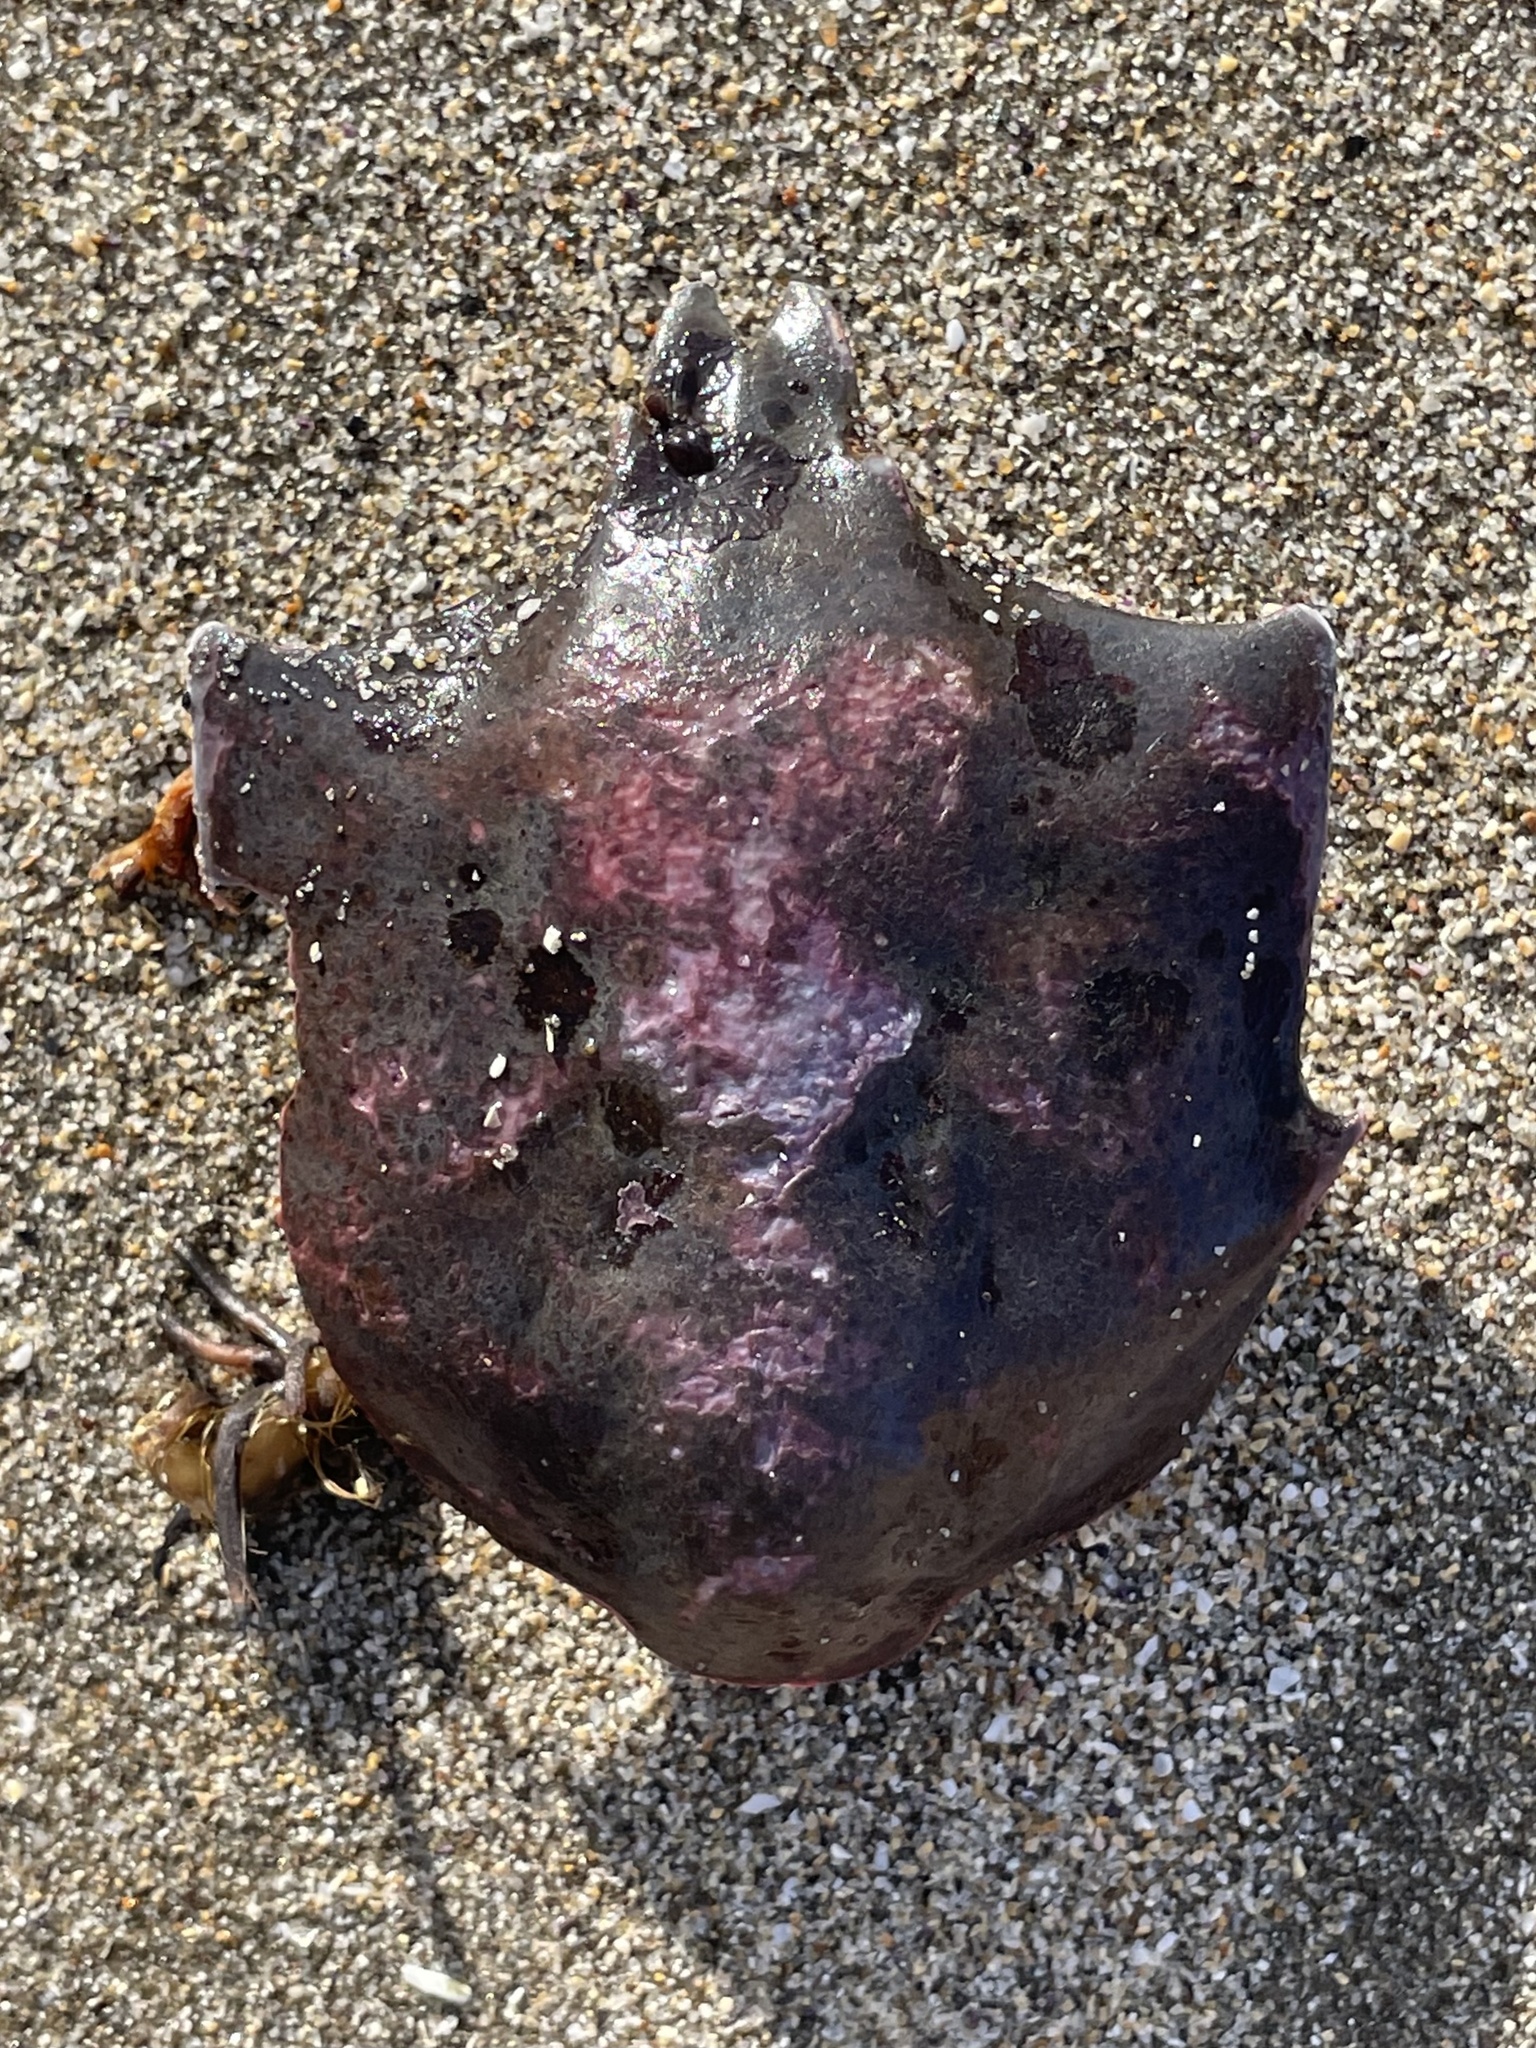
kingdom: Animalia
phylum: Arthropoda
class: Malacostraca
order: Decapoda
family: Epialtidae
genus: Pugettia
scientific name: Pugettia producta
